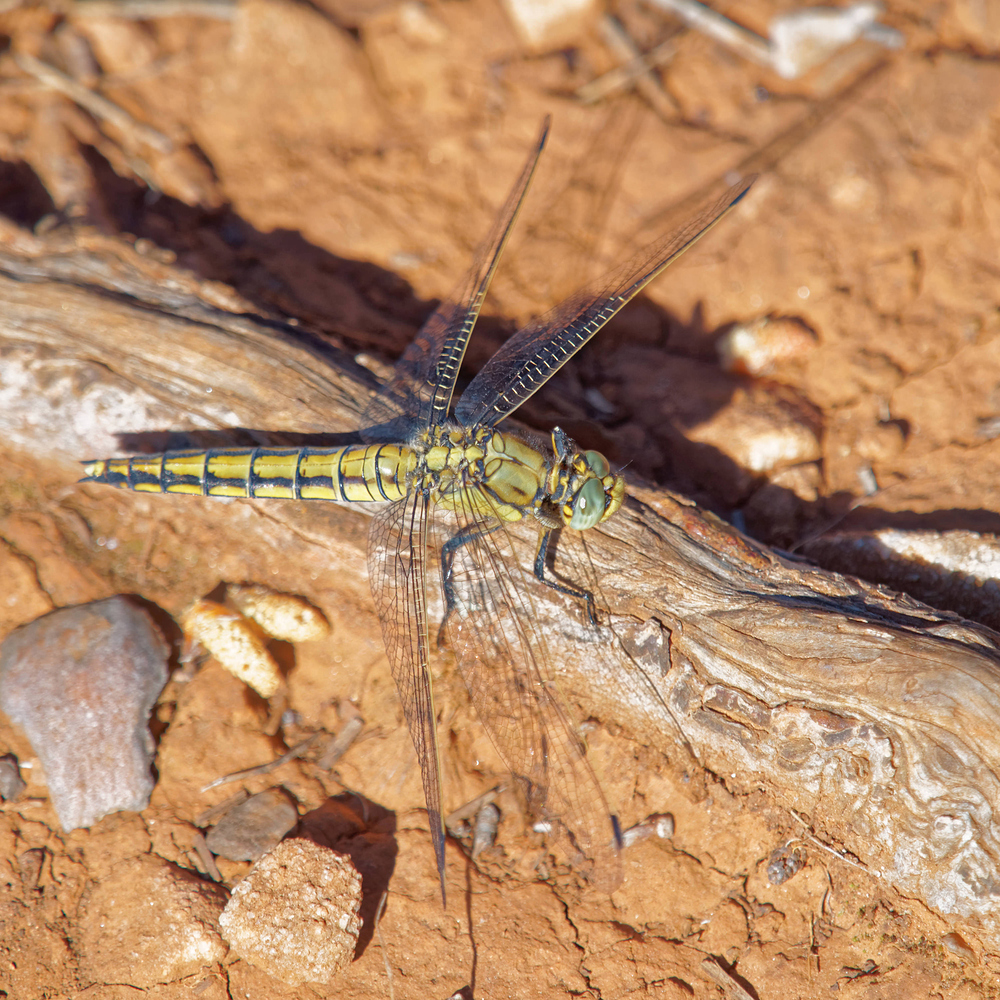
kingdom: Animalia
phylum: Arthropoda
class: Insecta
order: Odonata
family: Libellulidae
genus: Orthetrum
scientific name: Orthetrum cancellatum
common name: Black-tailed skimmer
